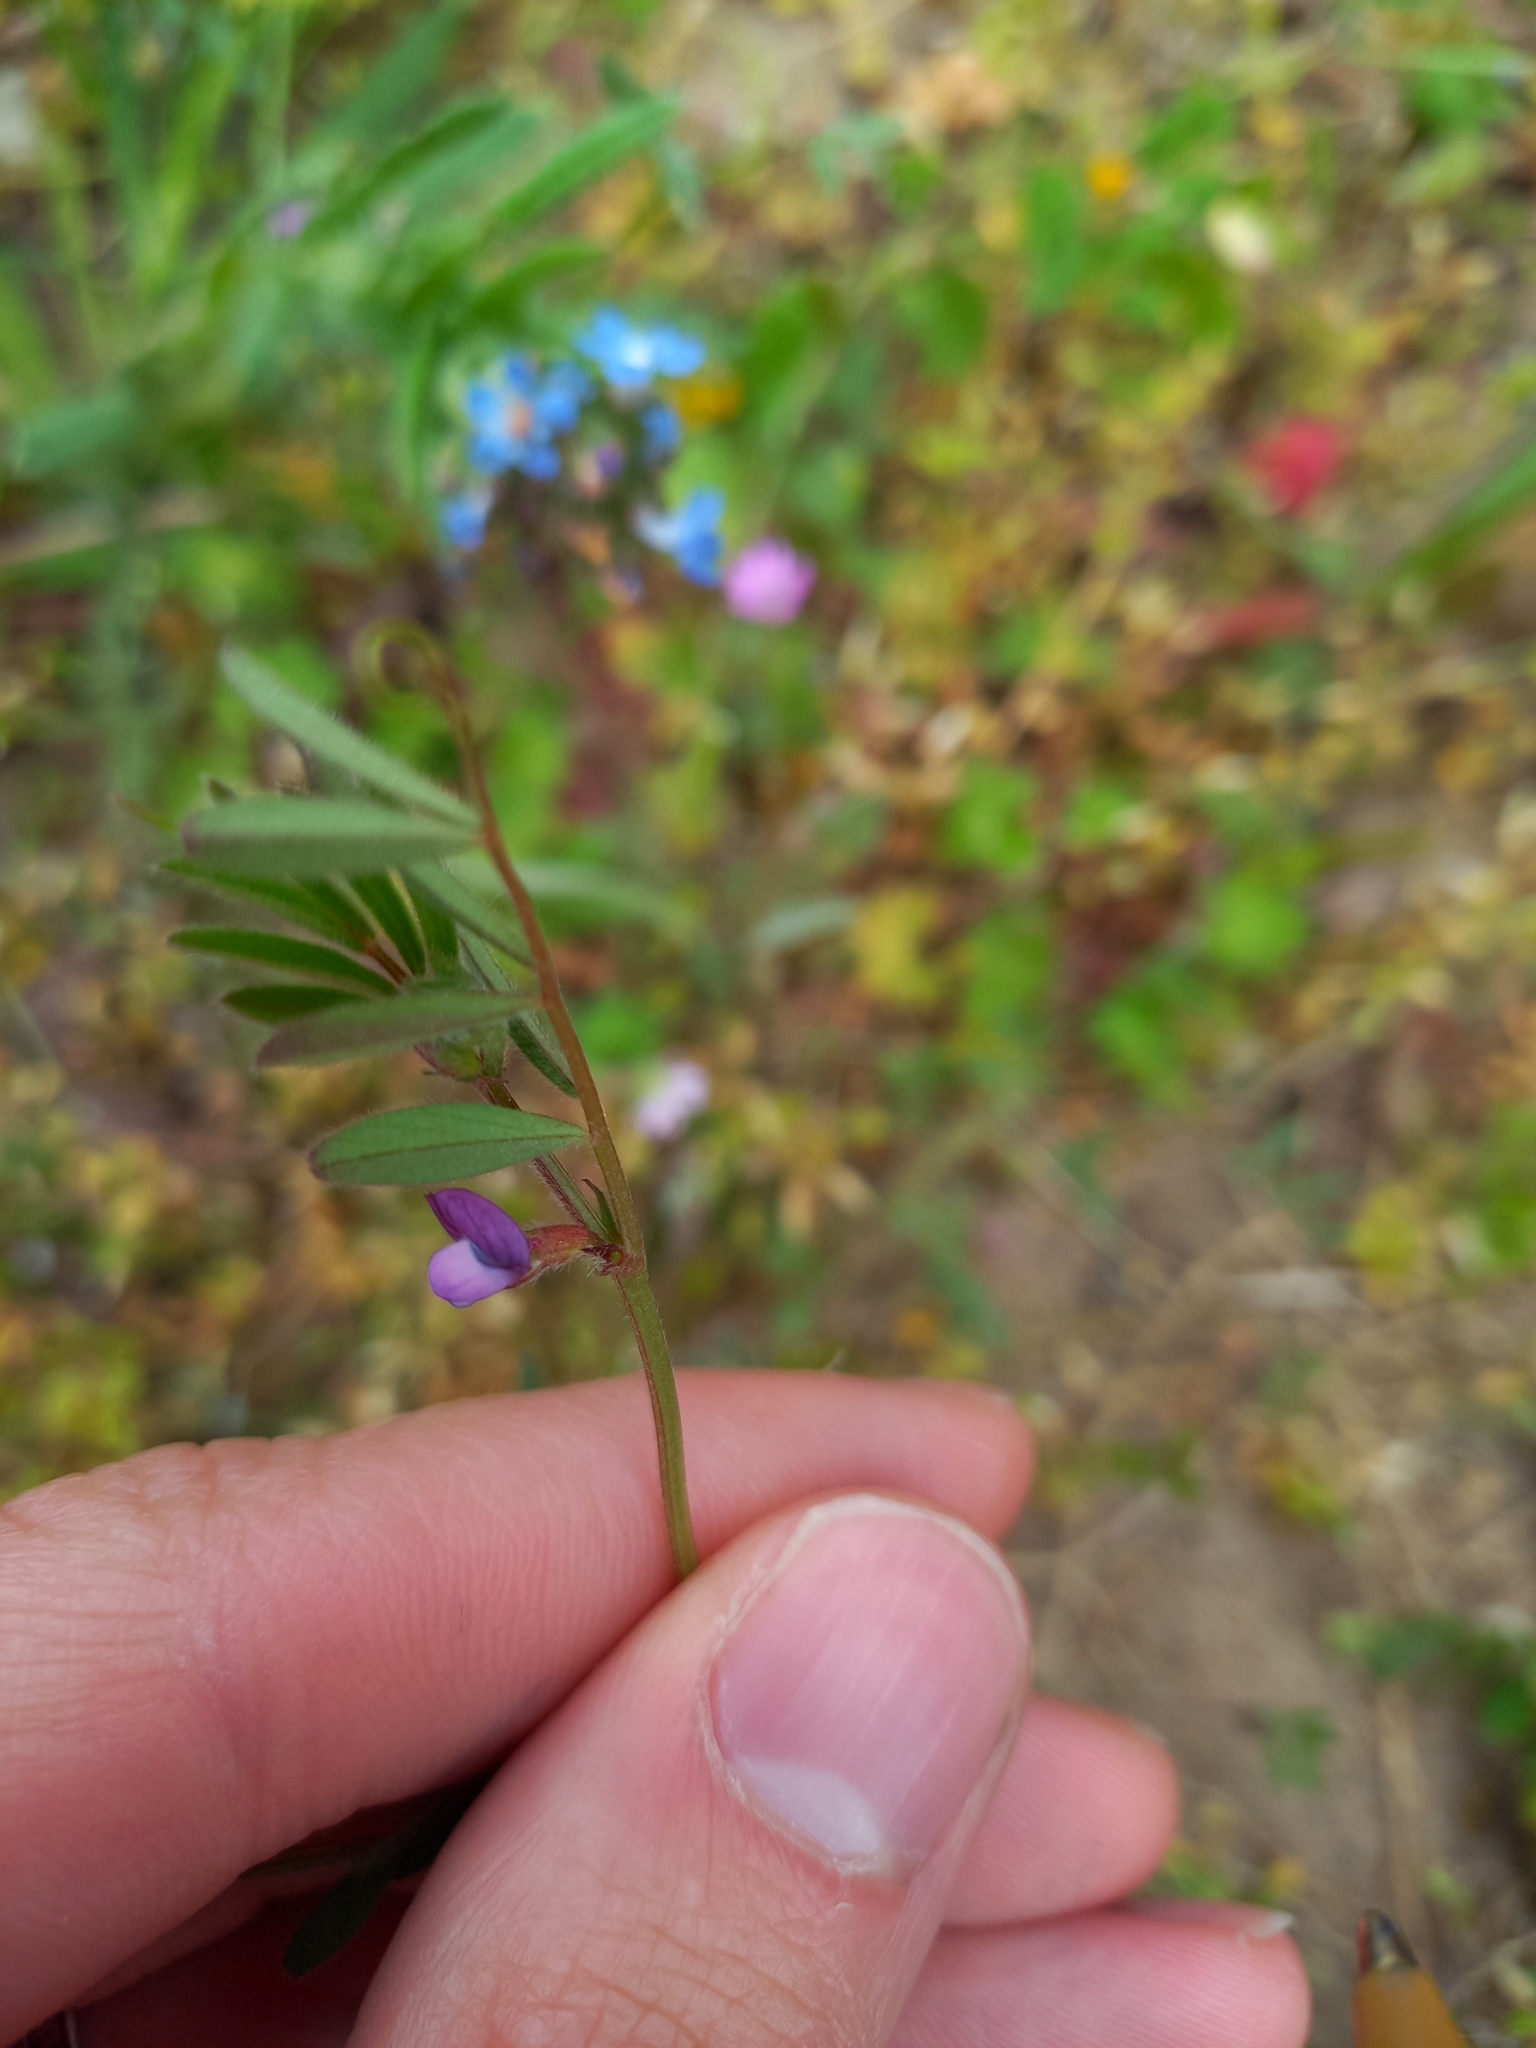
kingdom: Plantae
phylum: Tracheophyta
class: Magnoliopsida
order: Fabales
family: Fabaceae
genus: Vicia
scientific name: Vicia lathyroides
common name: Spring vetch
